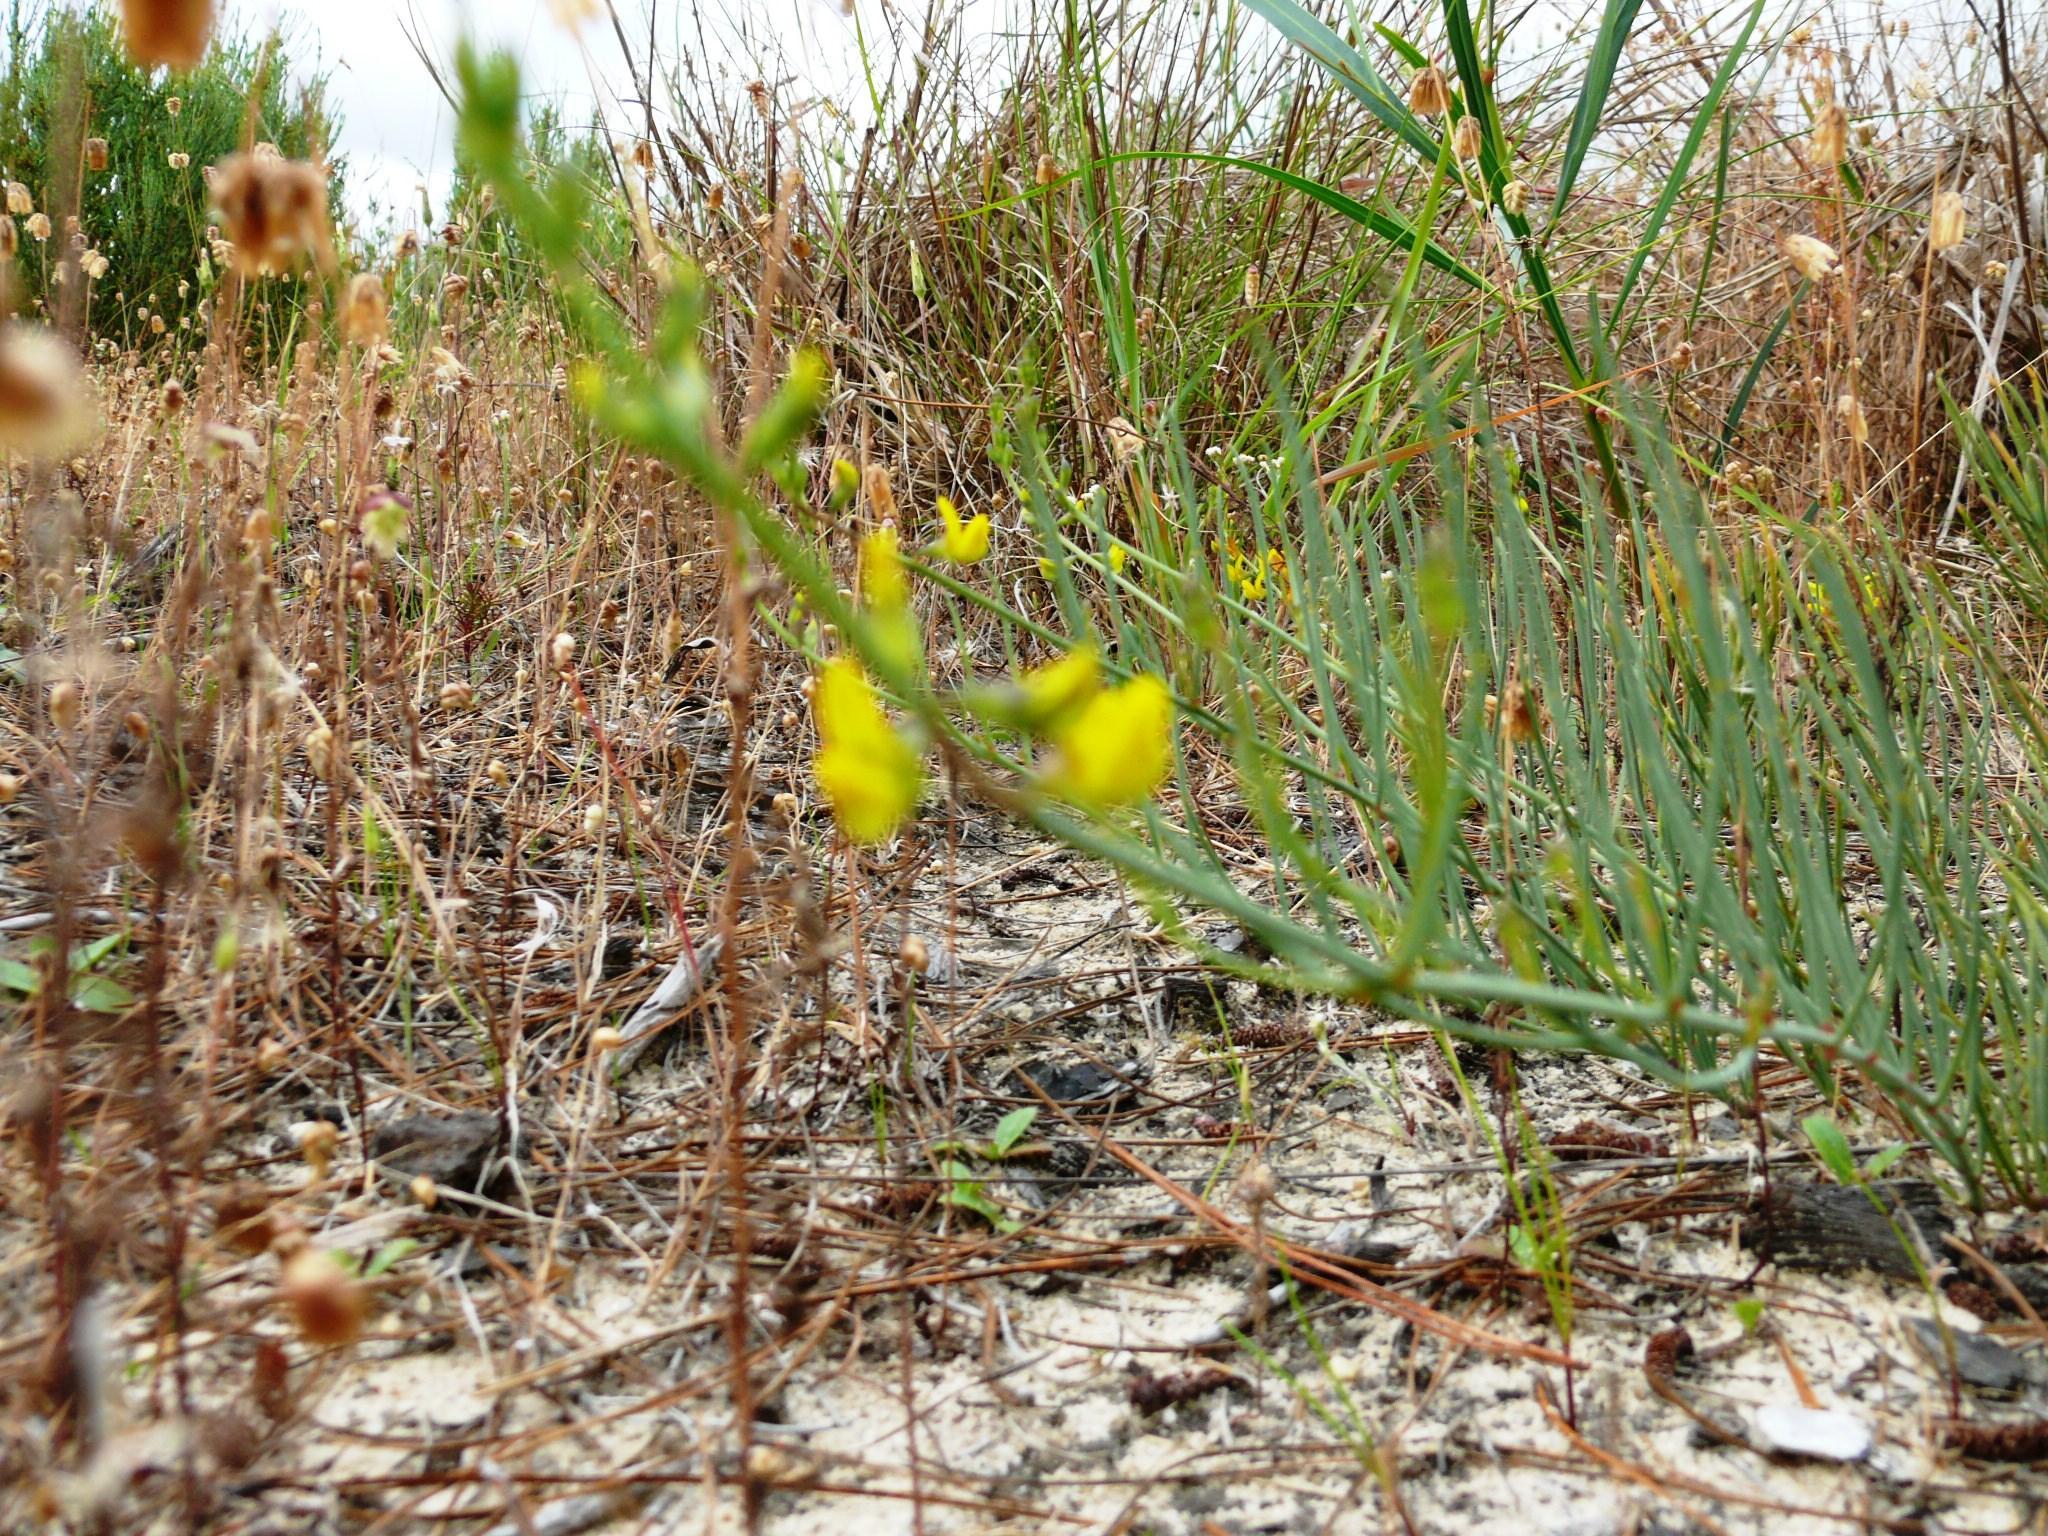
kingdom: Plantae
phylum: Tracheophyta
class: Magnoliopsida
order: Fabales
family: Fabaceae
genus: Lebeckia
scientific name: Lebeckia contaminata
